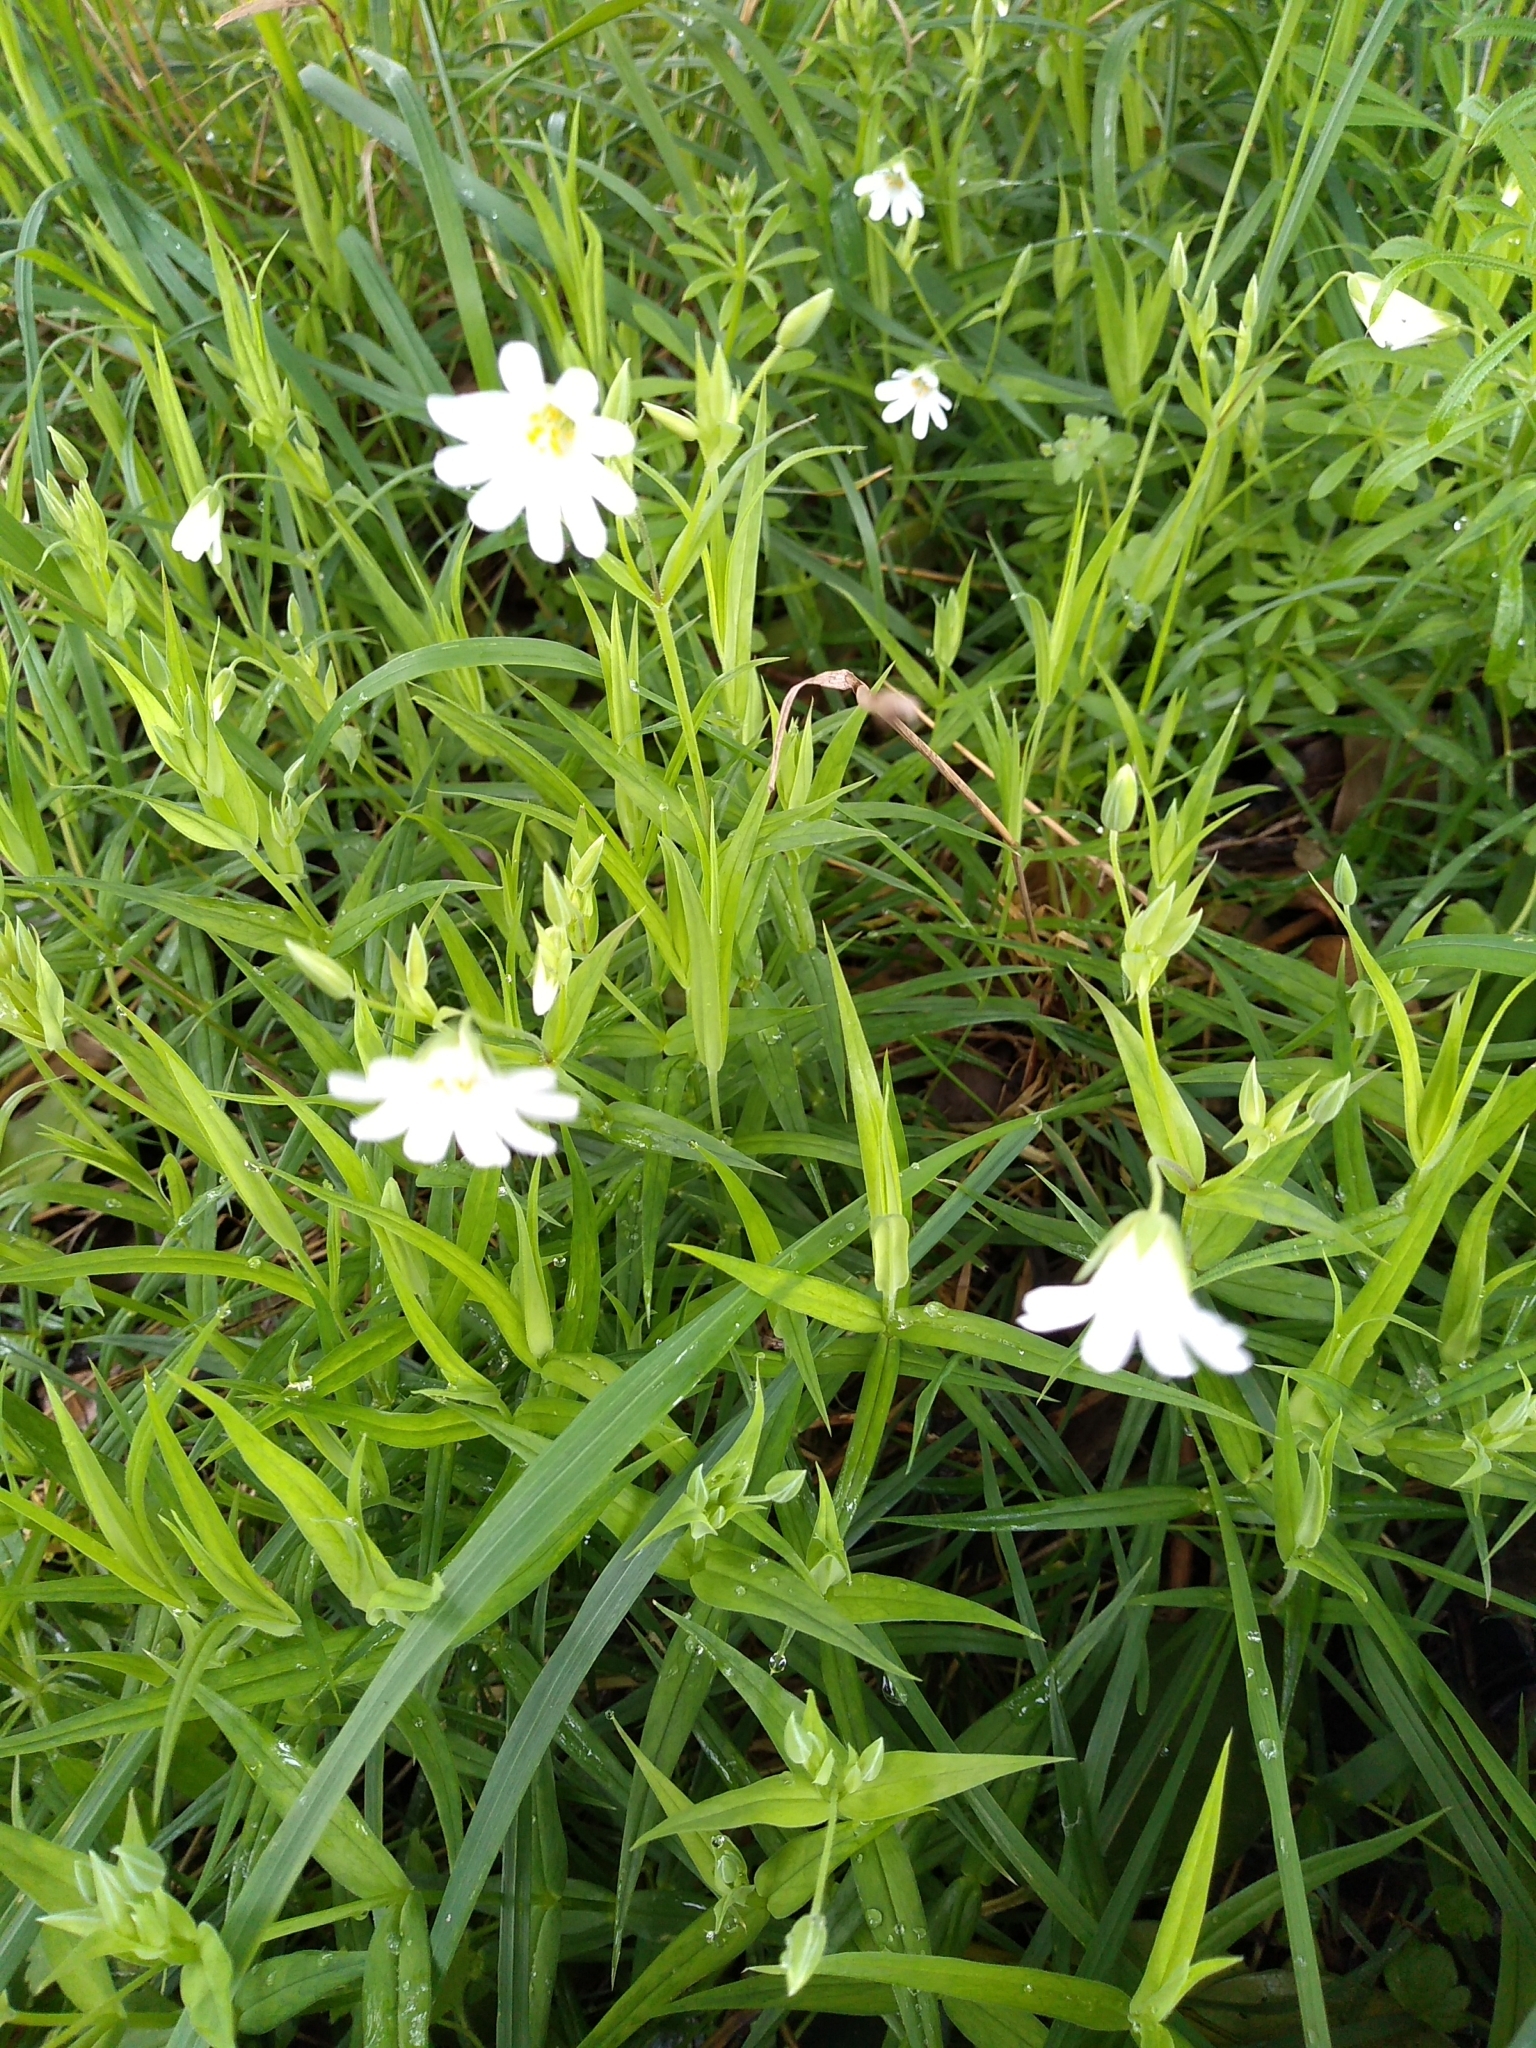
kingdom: Plantae
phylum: Tracheophyta
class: Magnoliopsida
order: Caryophyllales
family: Caryophyllaceae
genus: Rabelera
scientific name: Rabelera holostea
